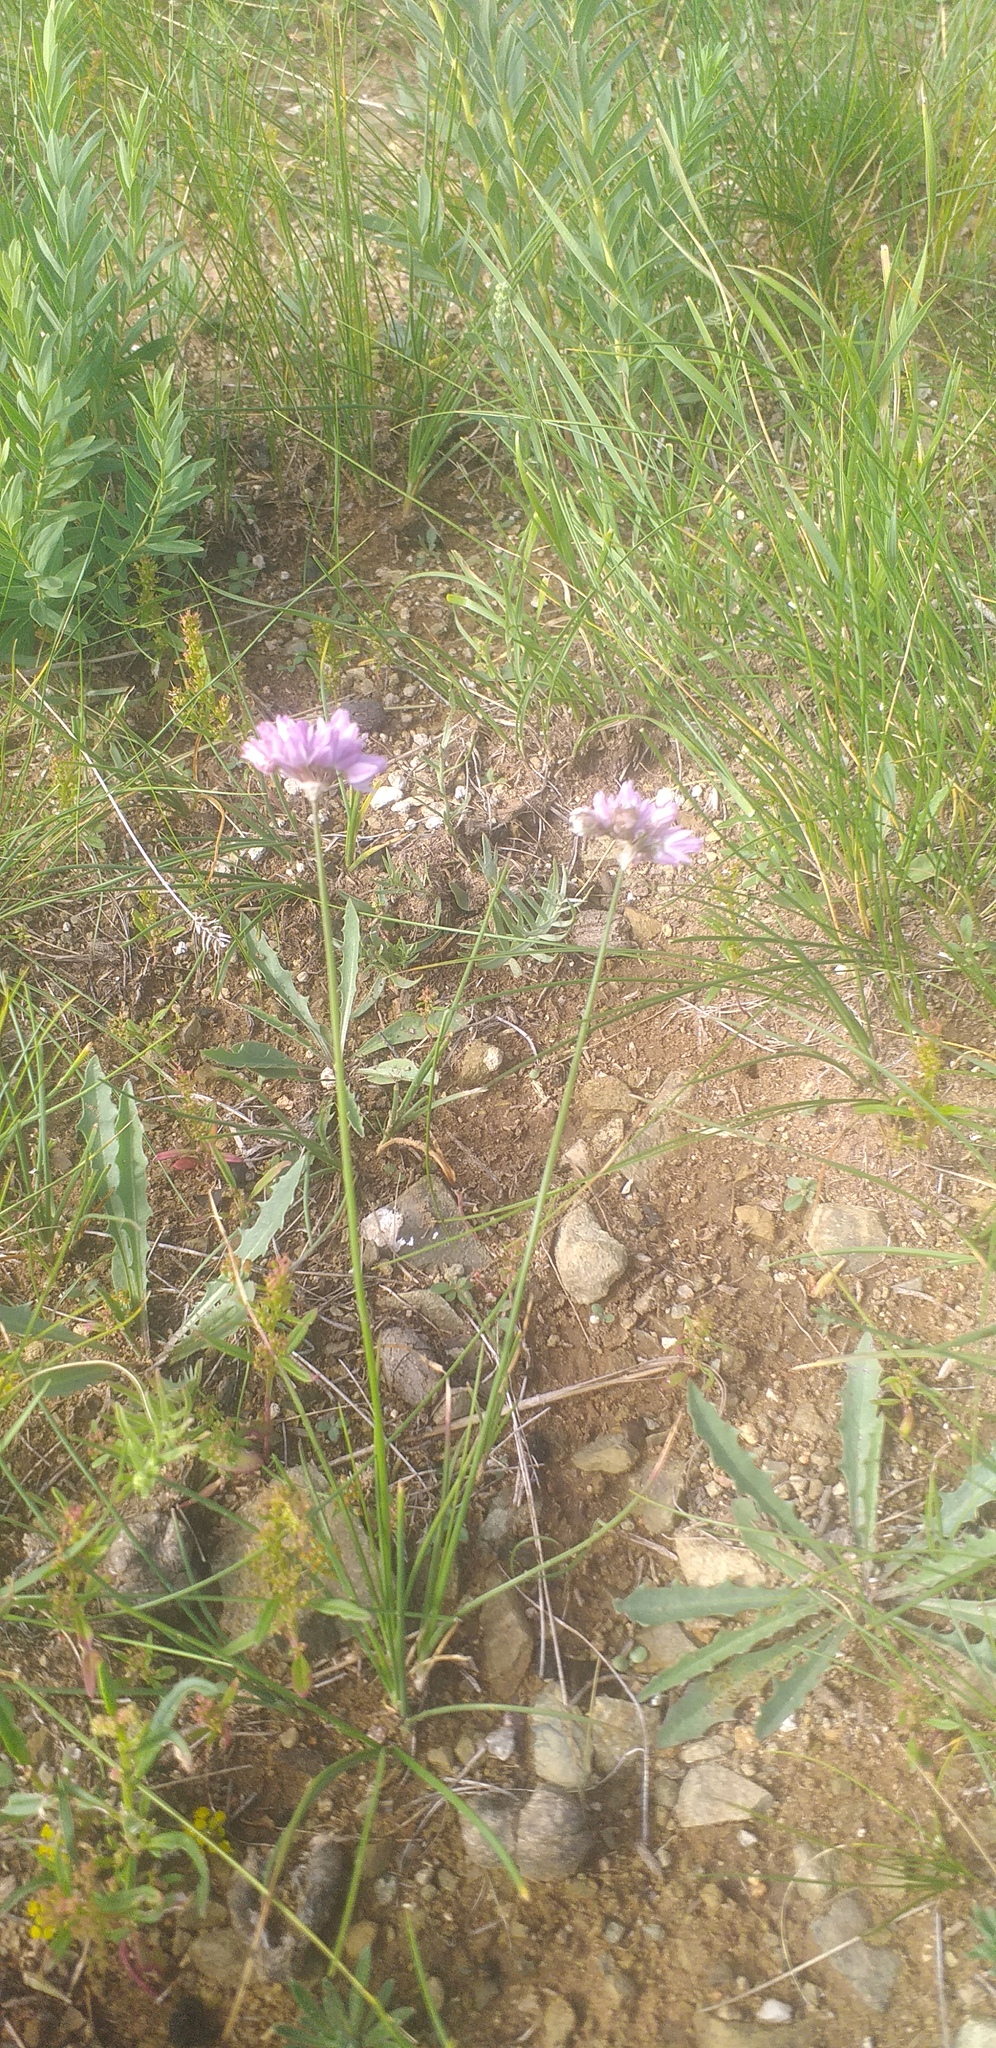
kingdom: Plantae
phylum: Tracheophyta
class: Liliopsida
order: Asparagales
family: Amaryllidaceae
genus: Allium
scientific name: Allium bidentatum
